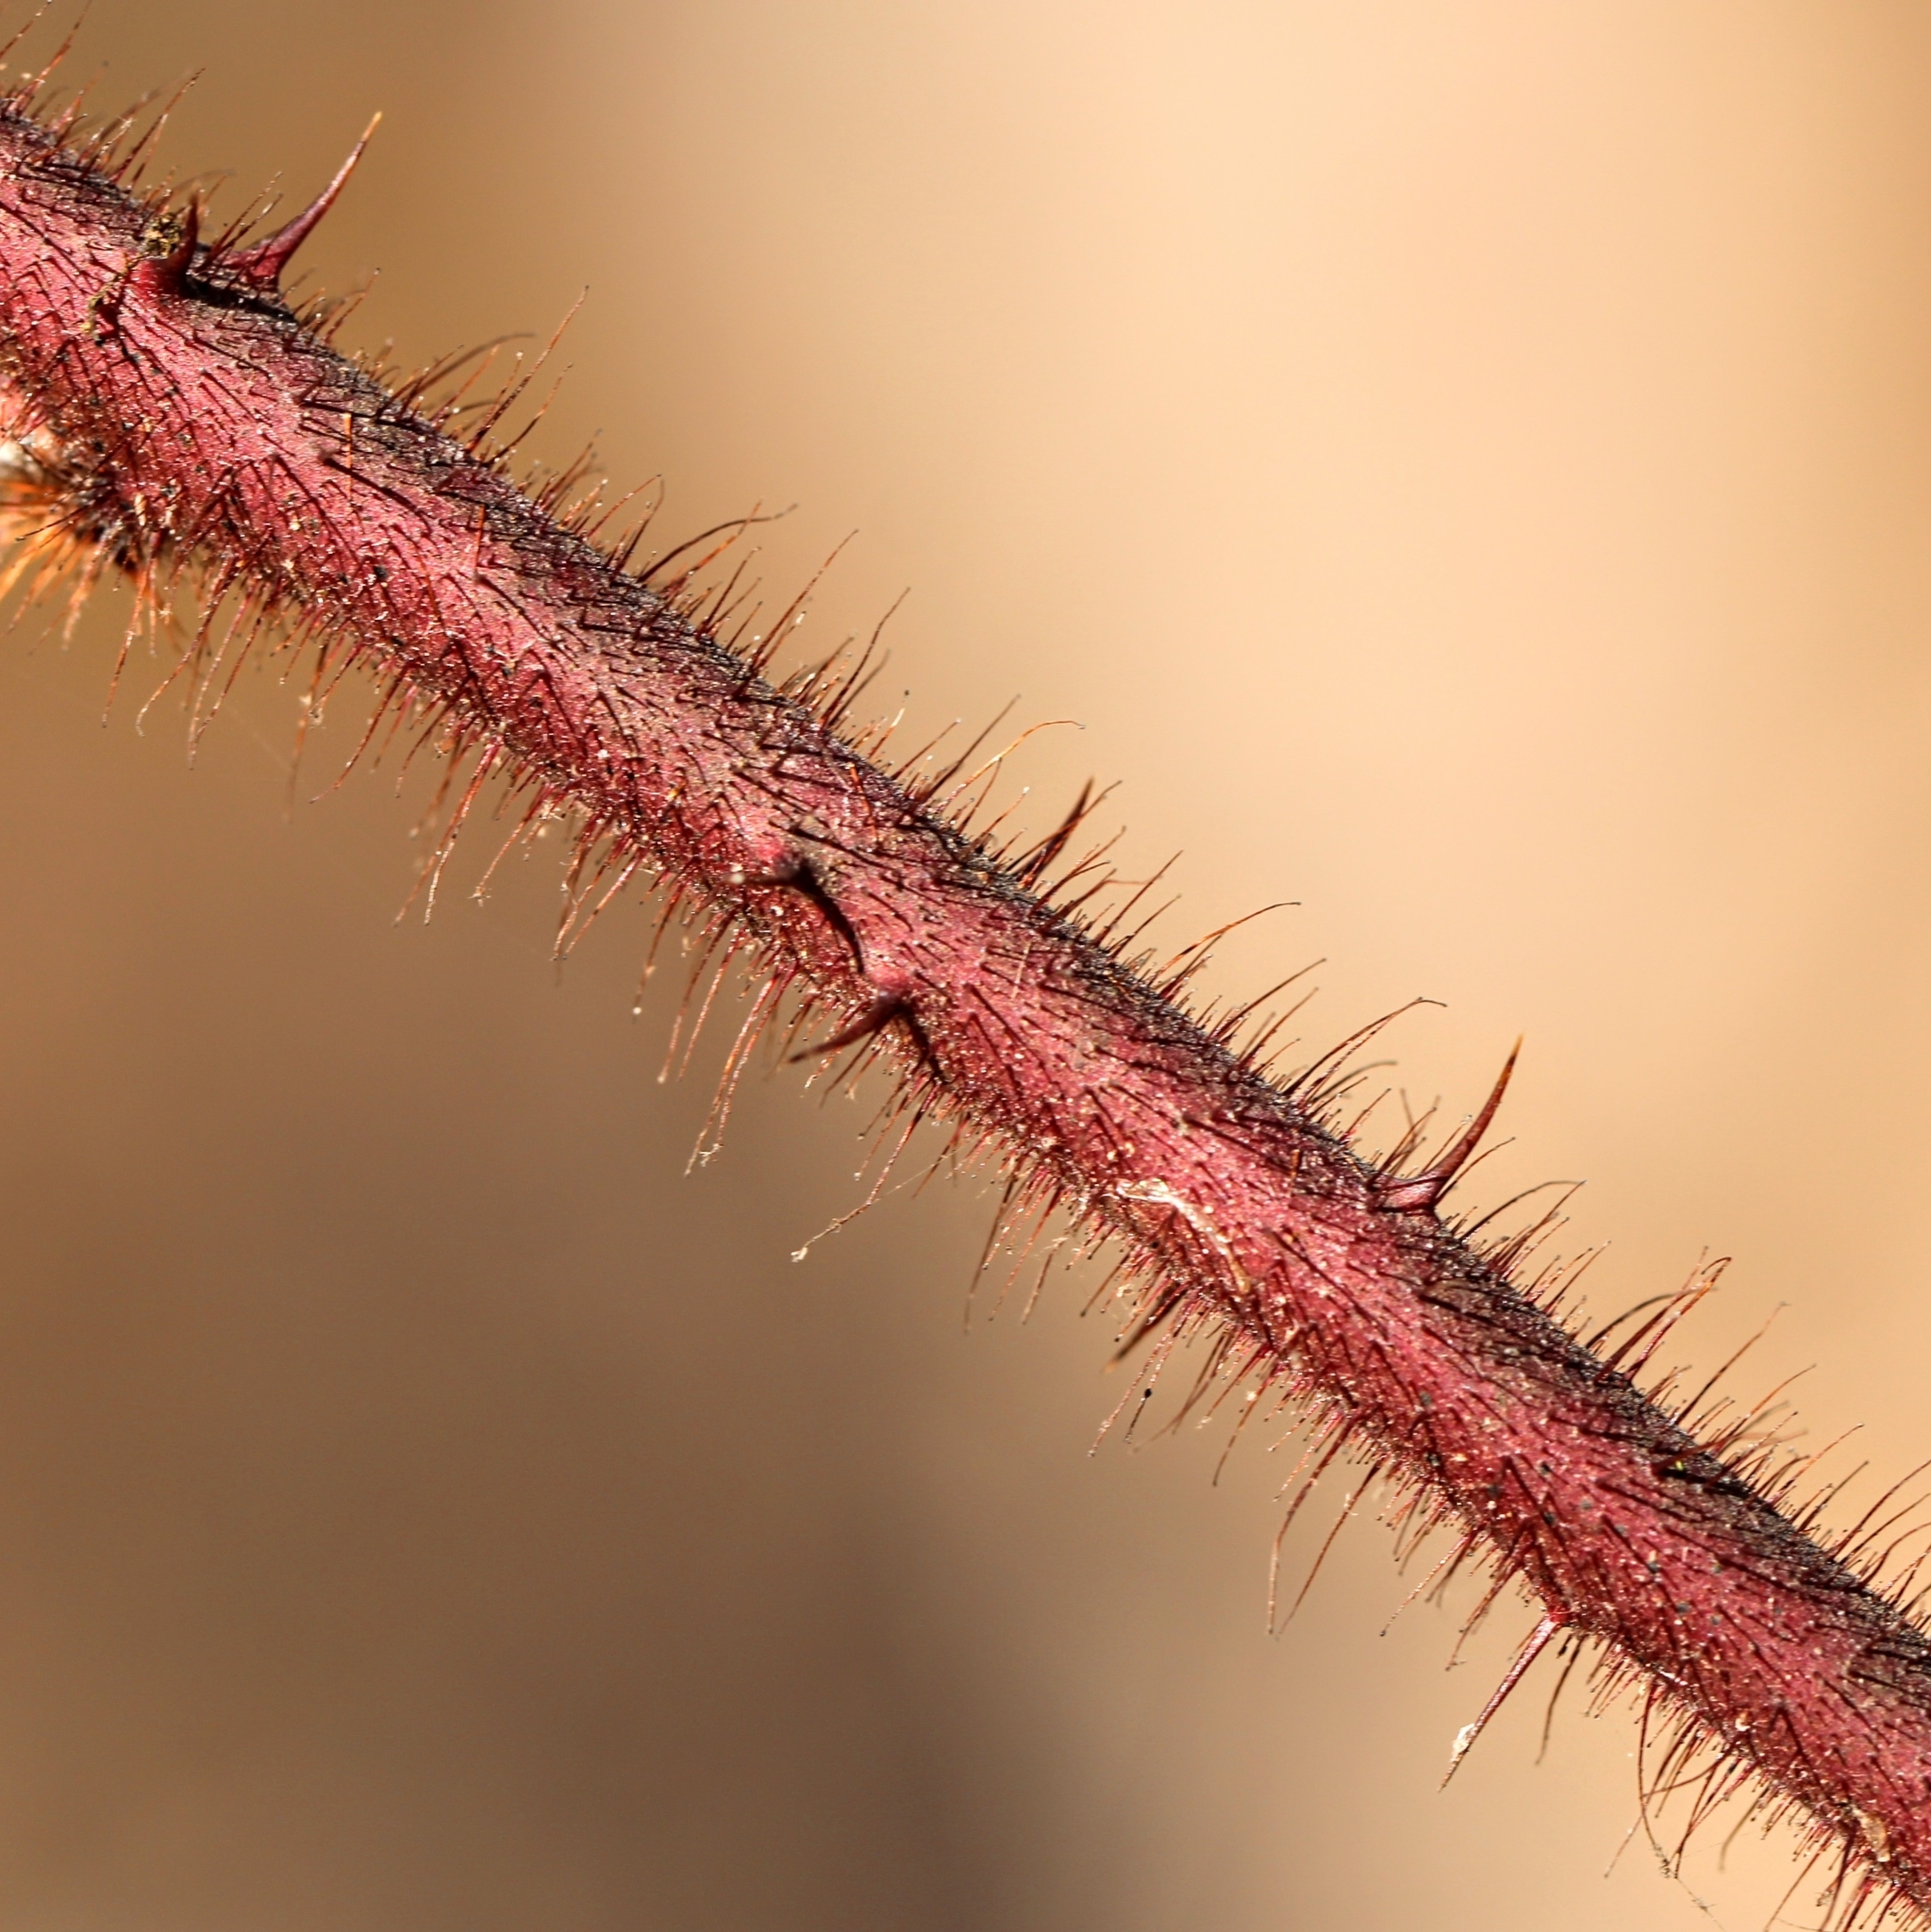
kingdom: Plantae
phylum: Tracheophyta
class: Magnoliopsida
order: Rosales
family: Rosaceae
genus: Rubus
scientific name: Rubus phoenicolasius
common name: Japanese wineberry
